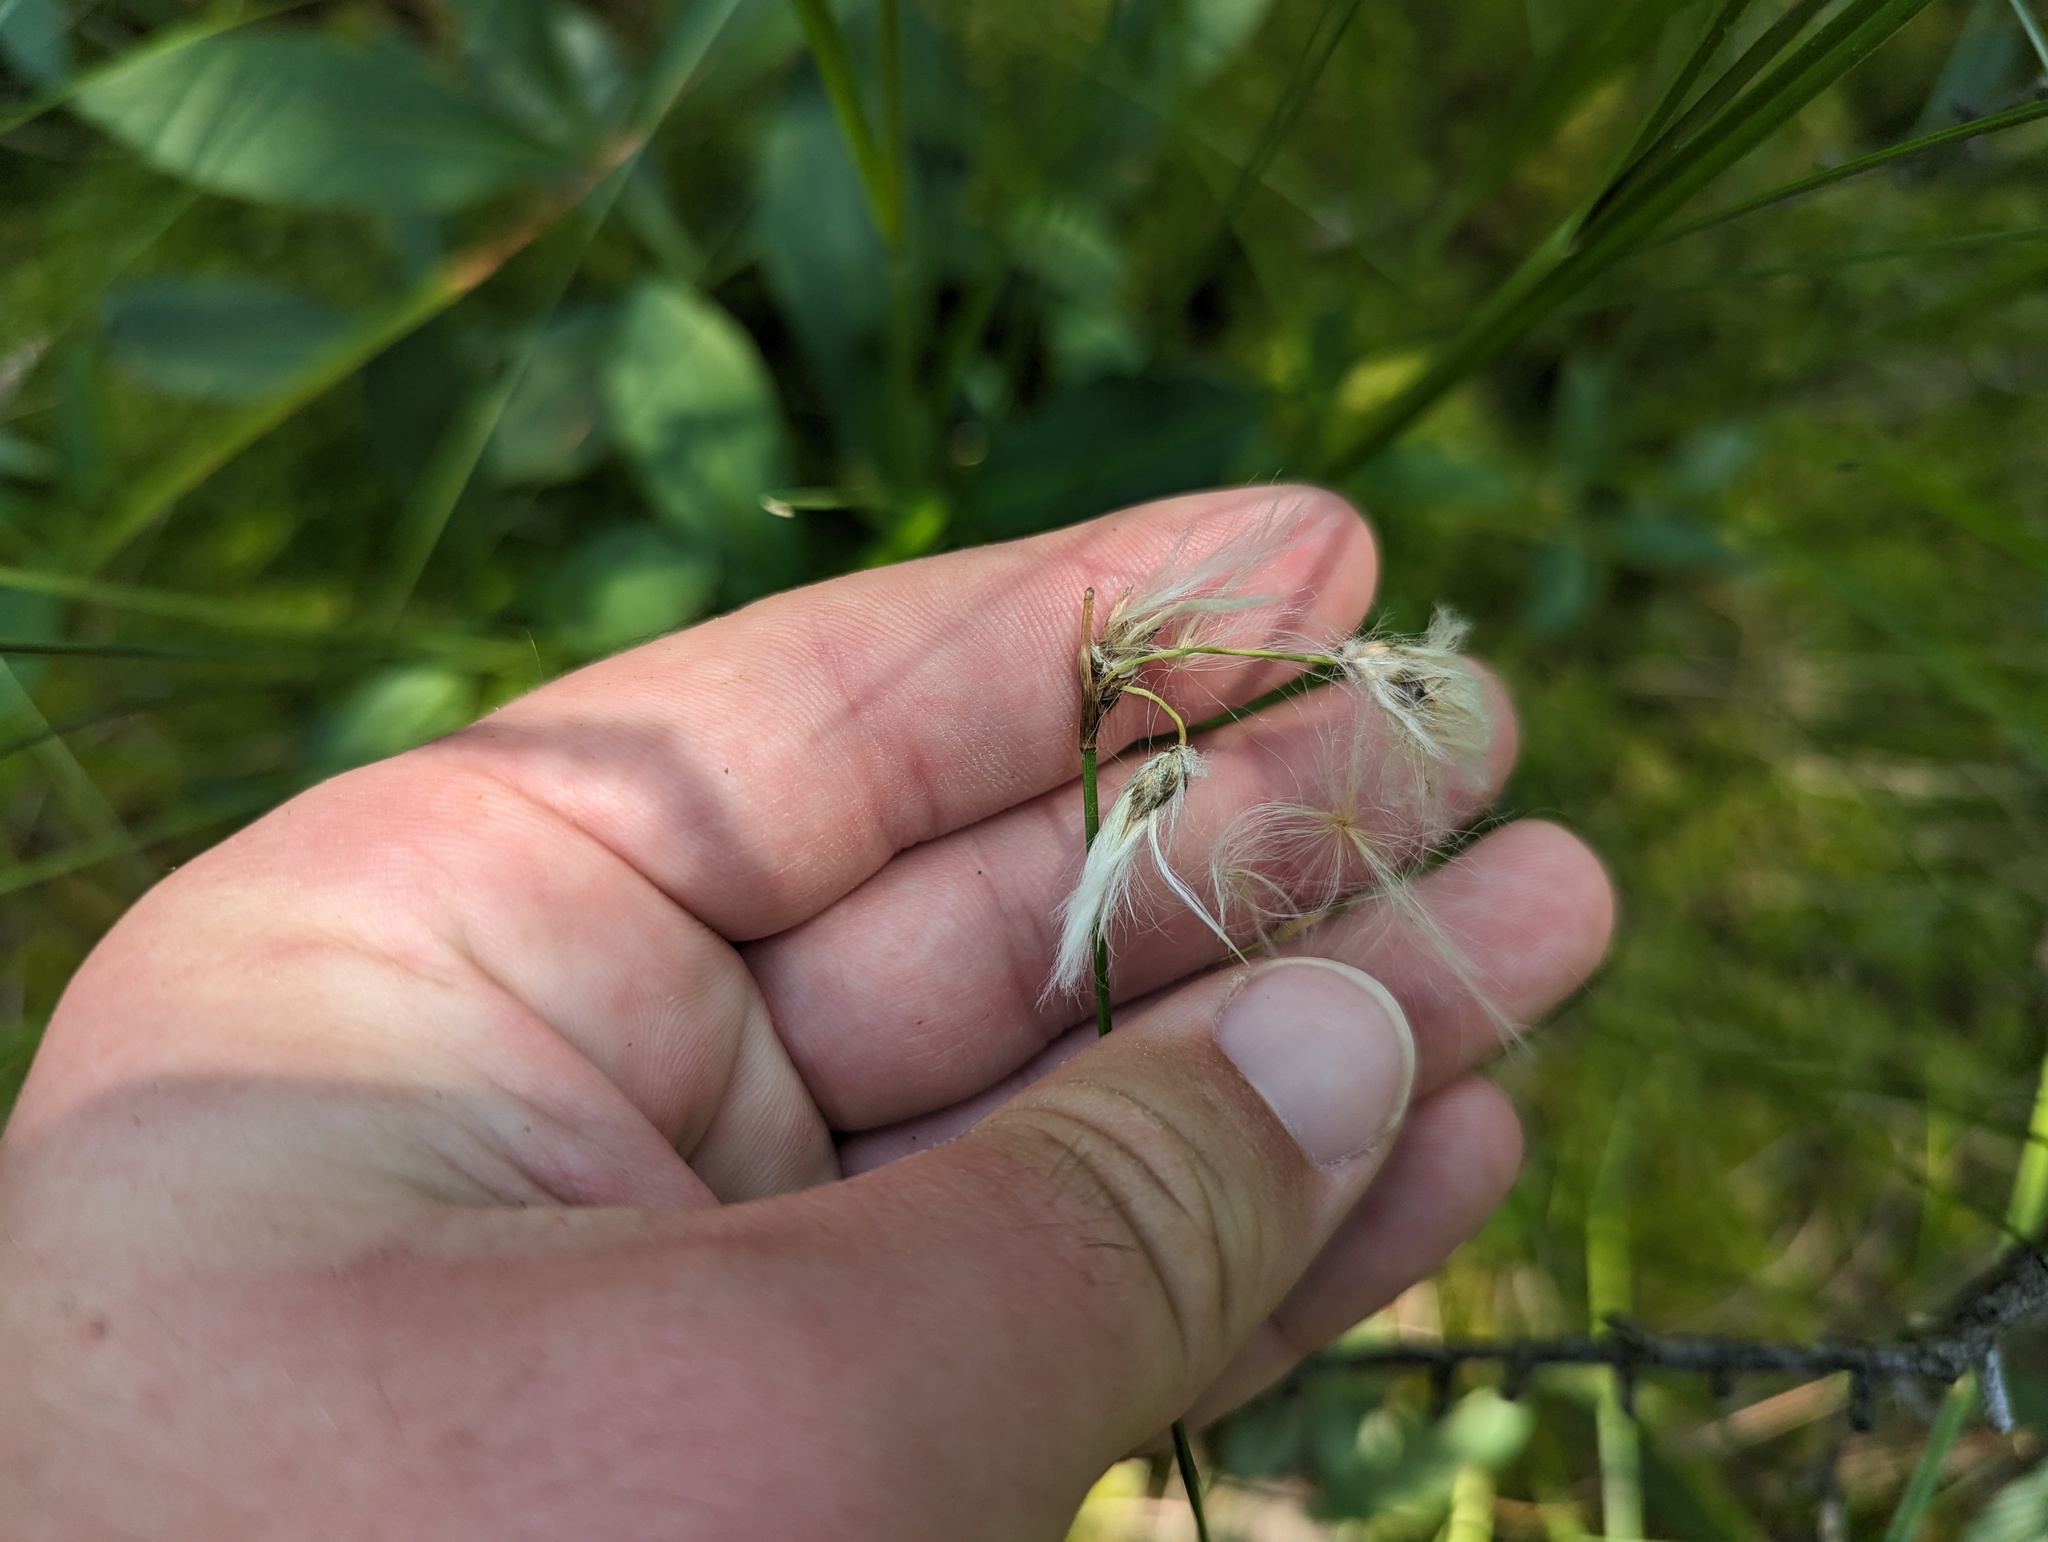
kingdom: Plantae
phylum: Tracheophyta
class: Liliopsida
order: Poales
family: Cyperaceae
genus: Eriophorum
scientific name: Eriophorum gracile
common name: Slender cottongrass
